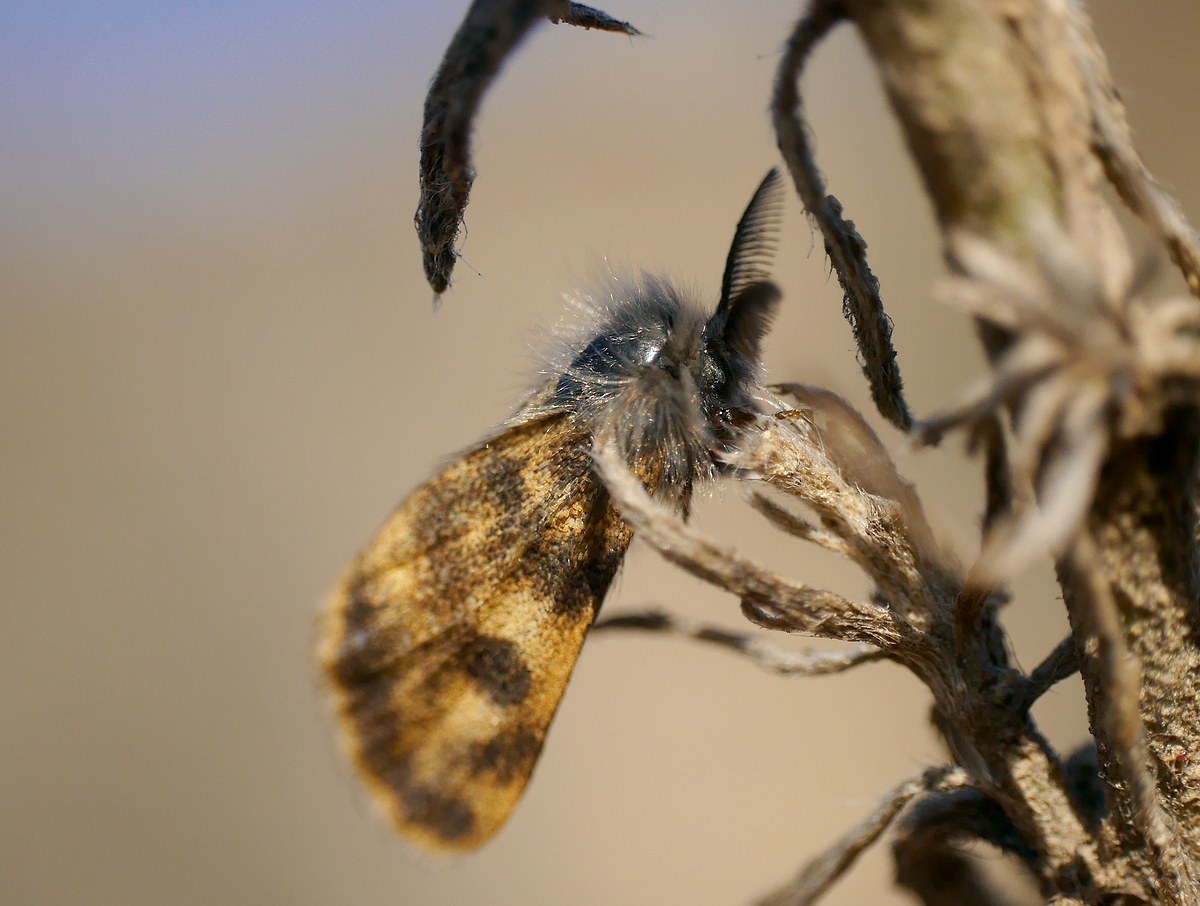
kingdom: Animalia
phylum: Arthropoda
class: Insecta
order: Lepidoptera
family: Erebidae
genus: Orgyia
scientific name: Orgyia dubia
